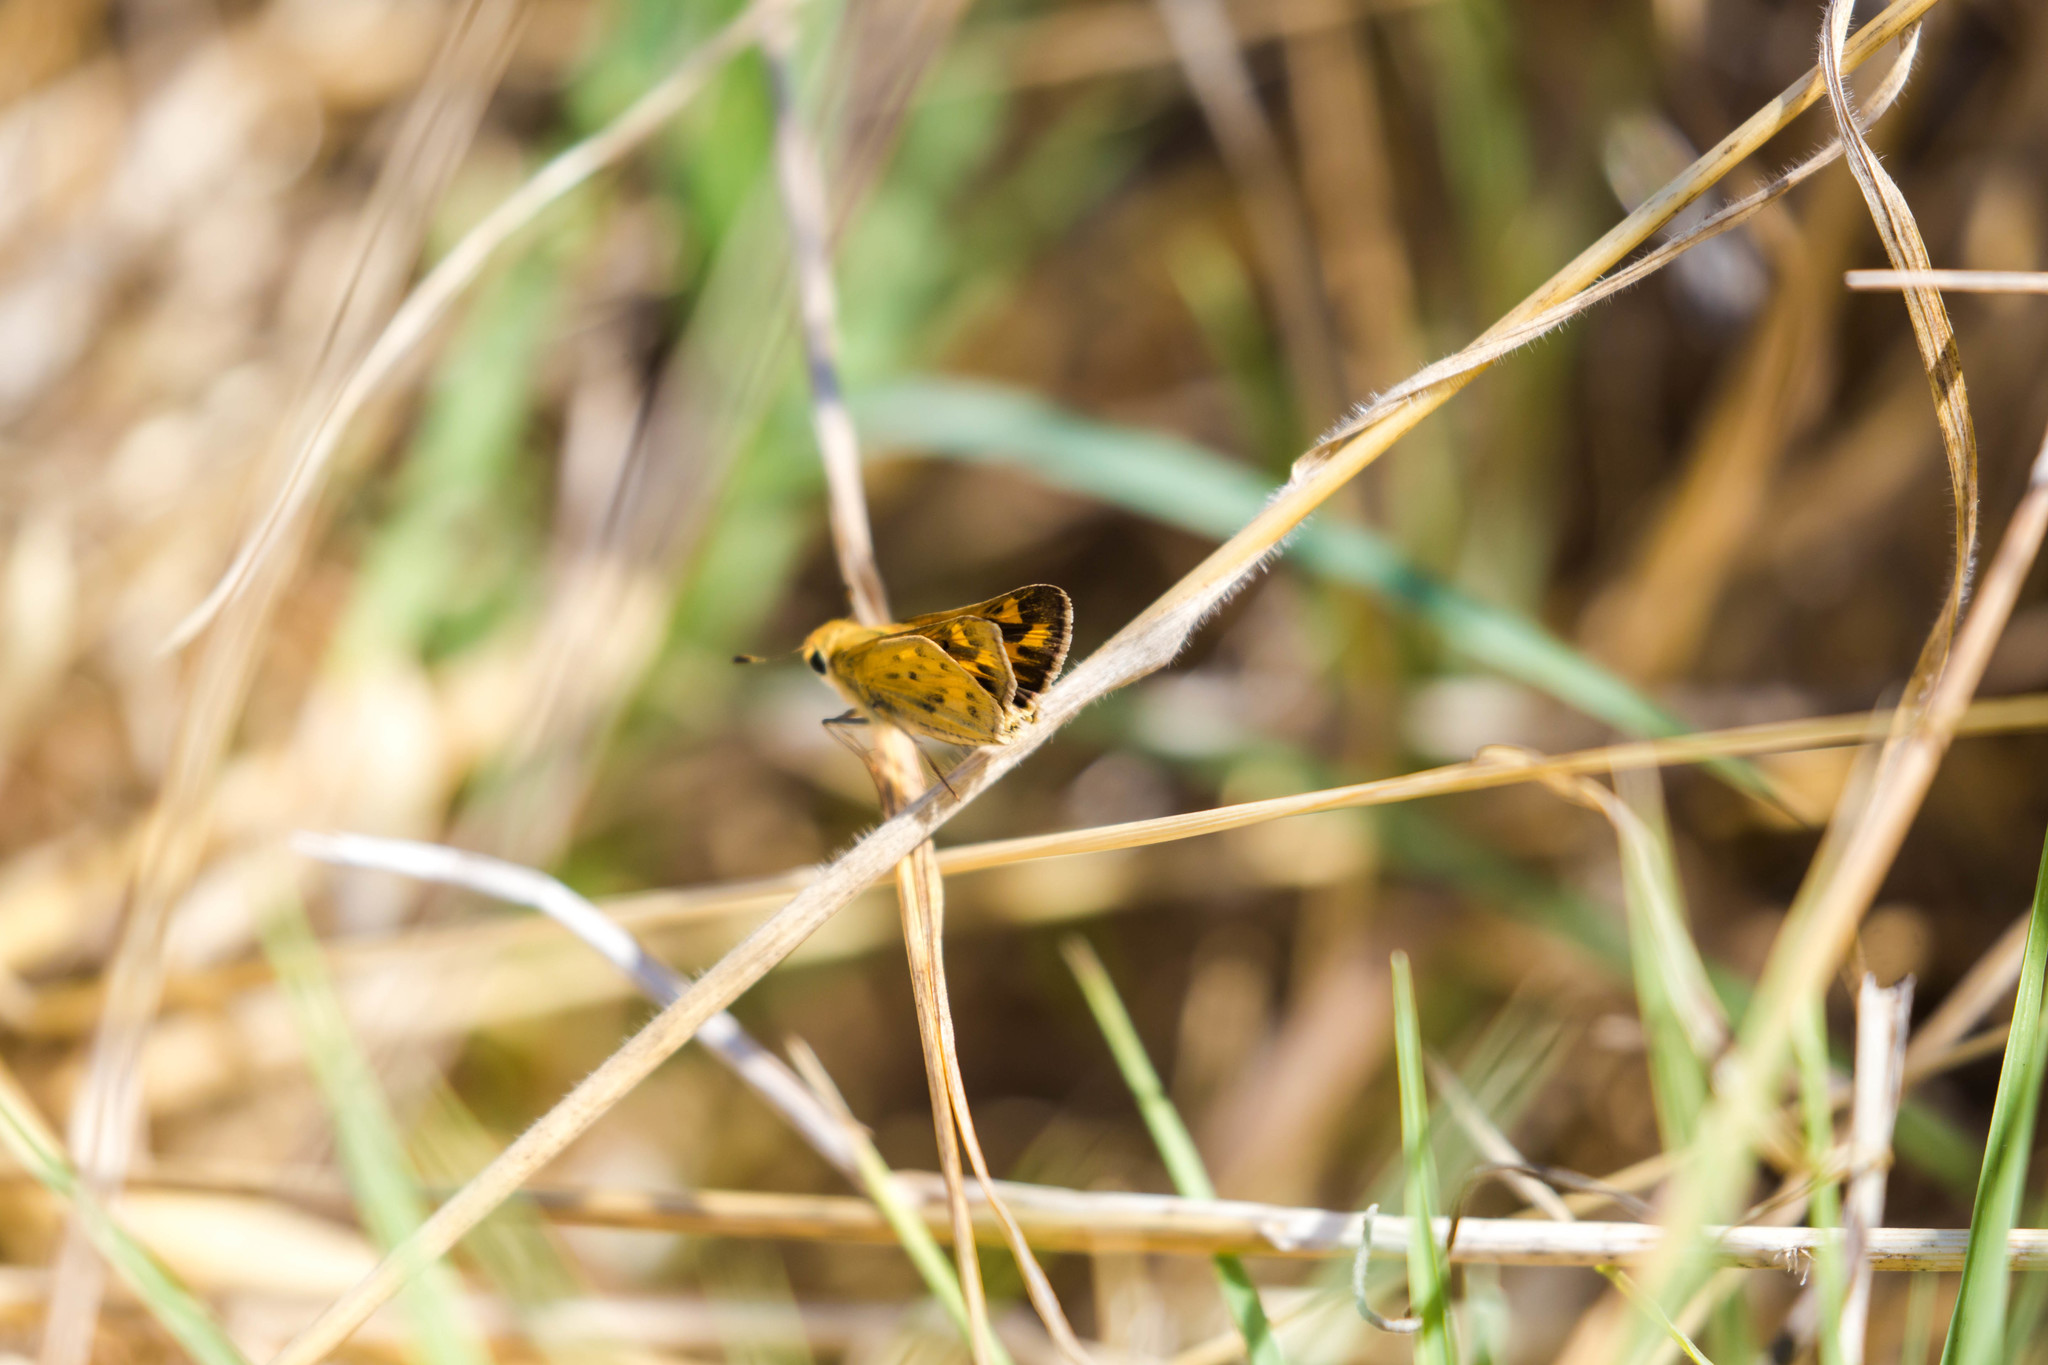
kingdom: Animalia
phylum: Arthropoda
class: Insecta
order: Lepidoptera
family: Hesperiidae
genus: Hylephila
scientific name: Hylephila phyleus
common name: Fiery skipper
